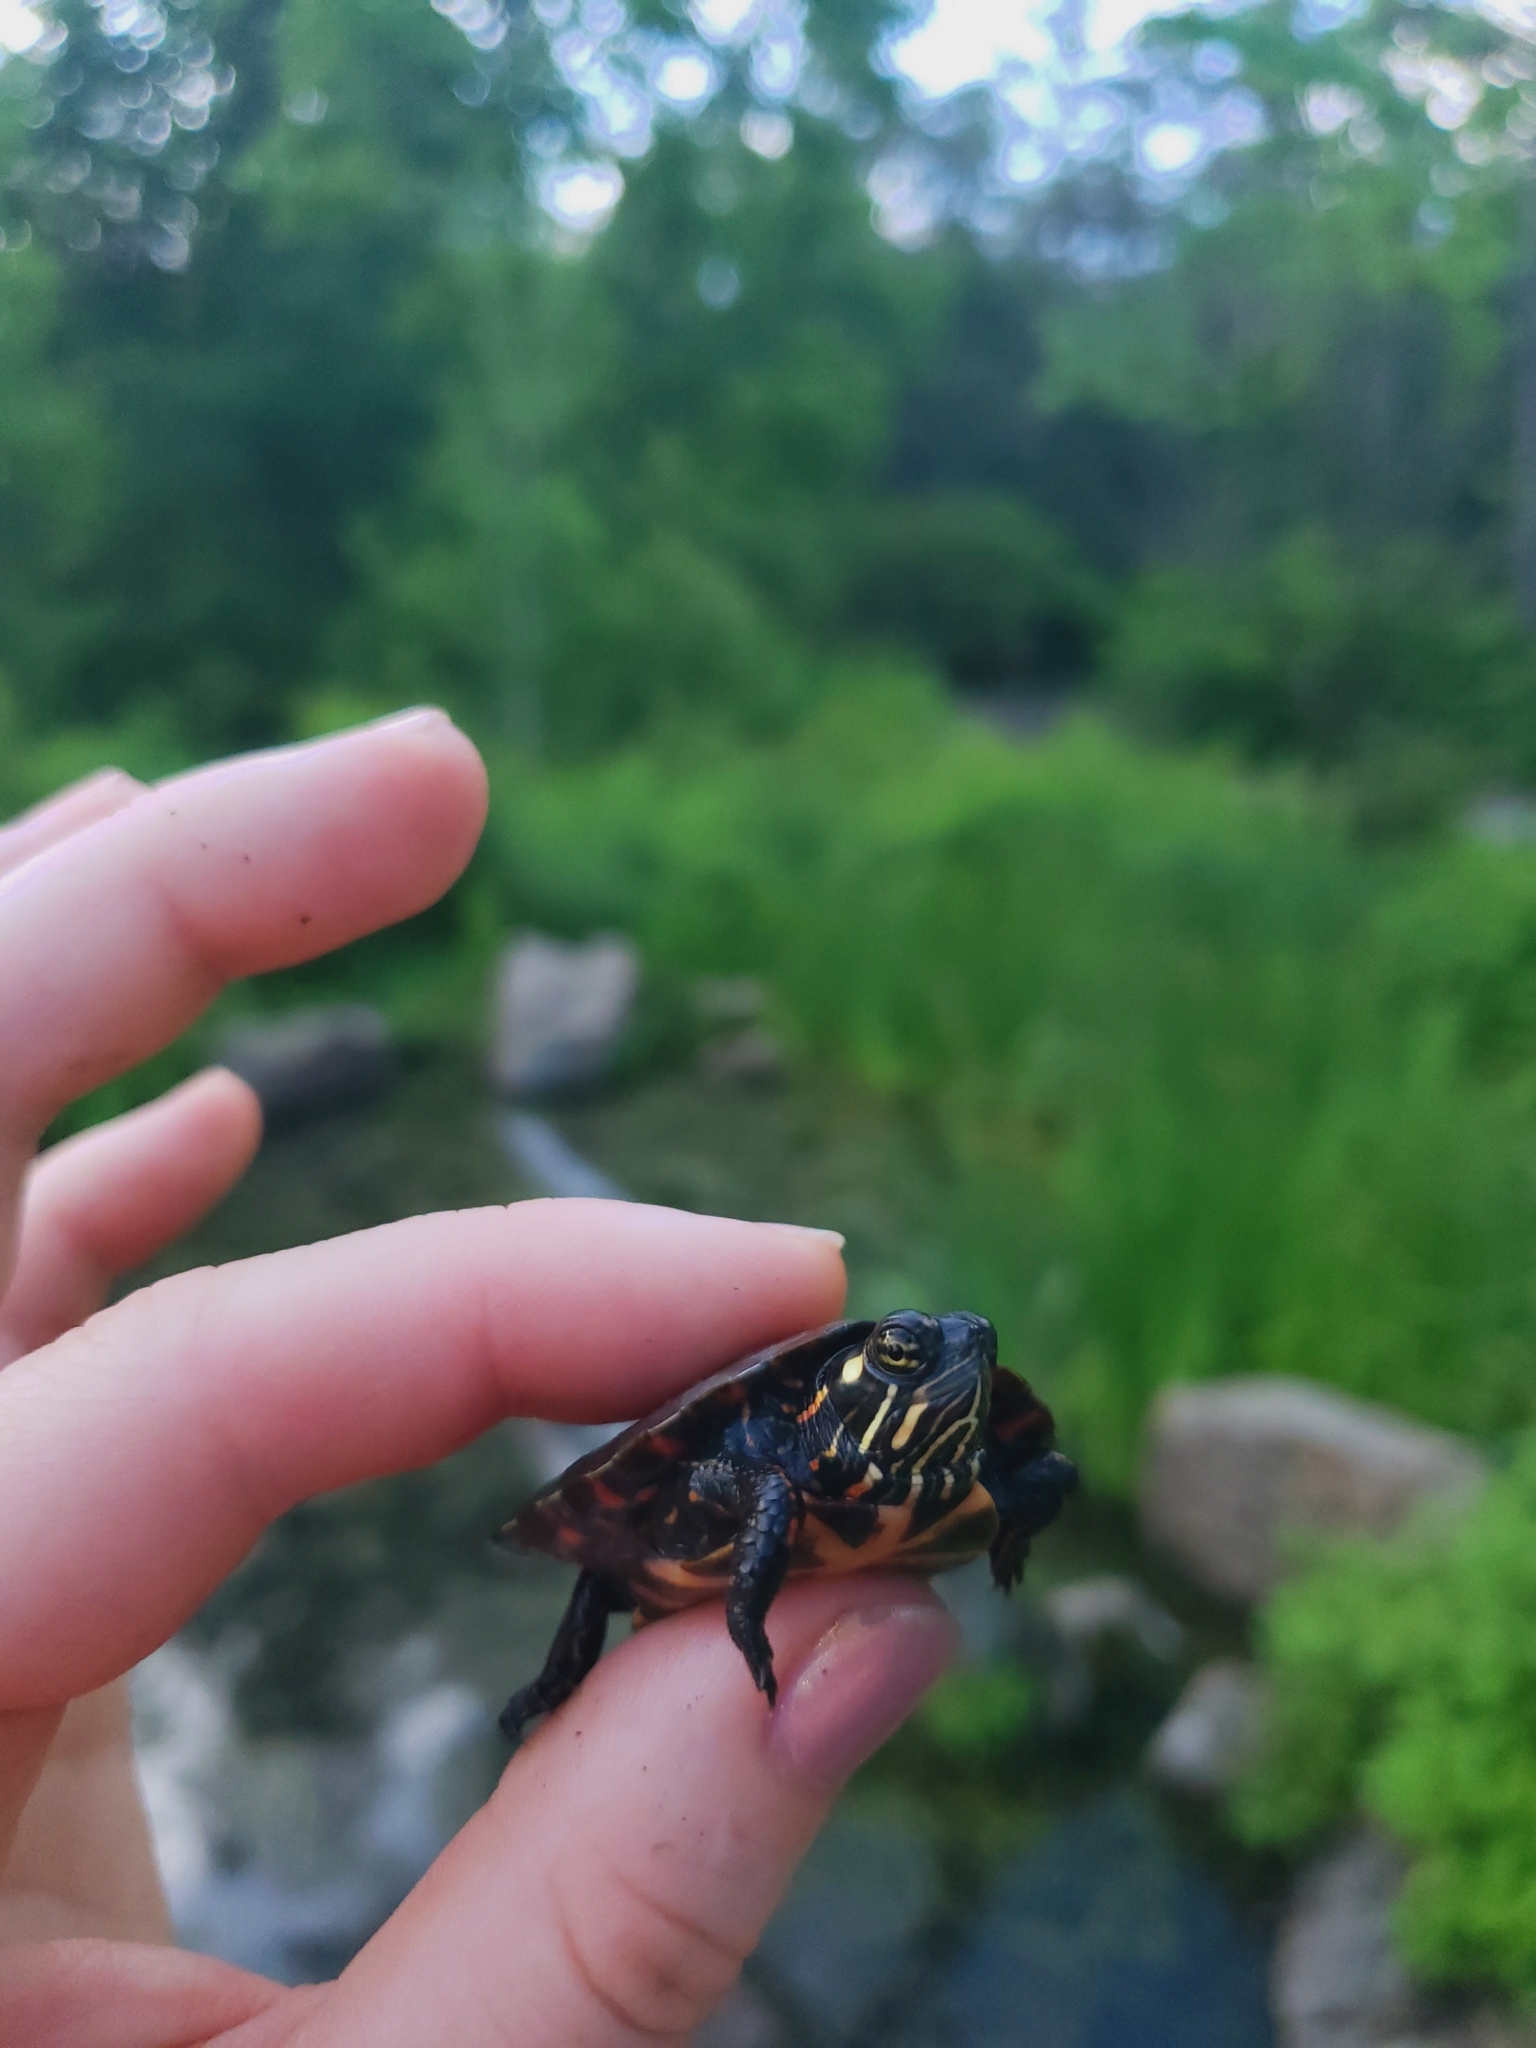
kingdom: Animalia
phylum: Chordata
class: Testudines
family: Emydidae
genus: Chrysemys
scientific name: Chrysemys picta
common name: Painted turtle
